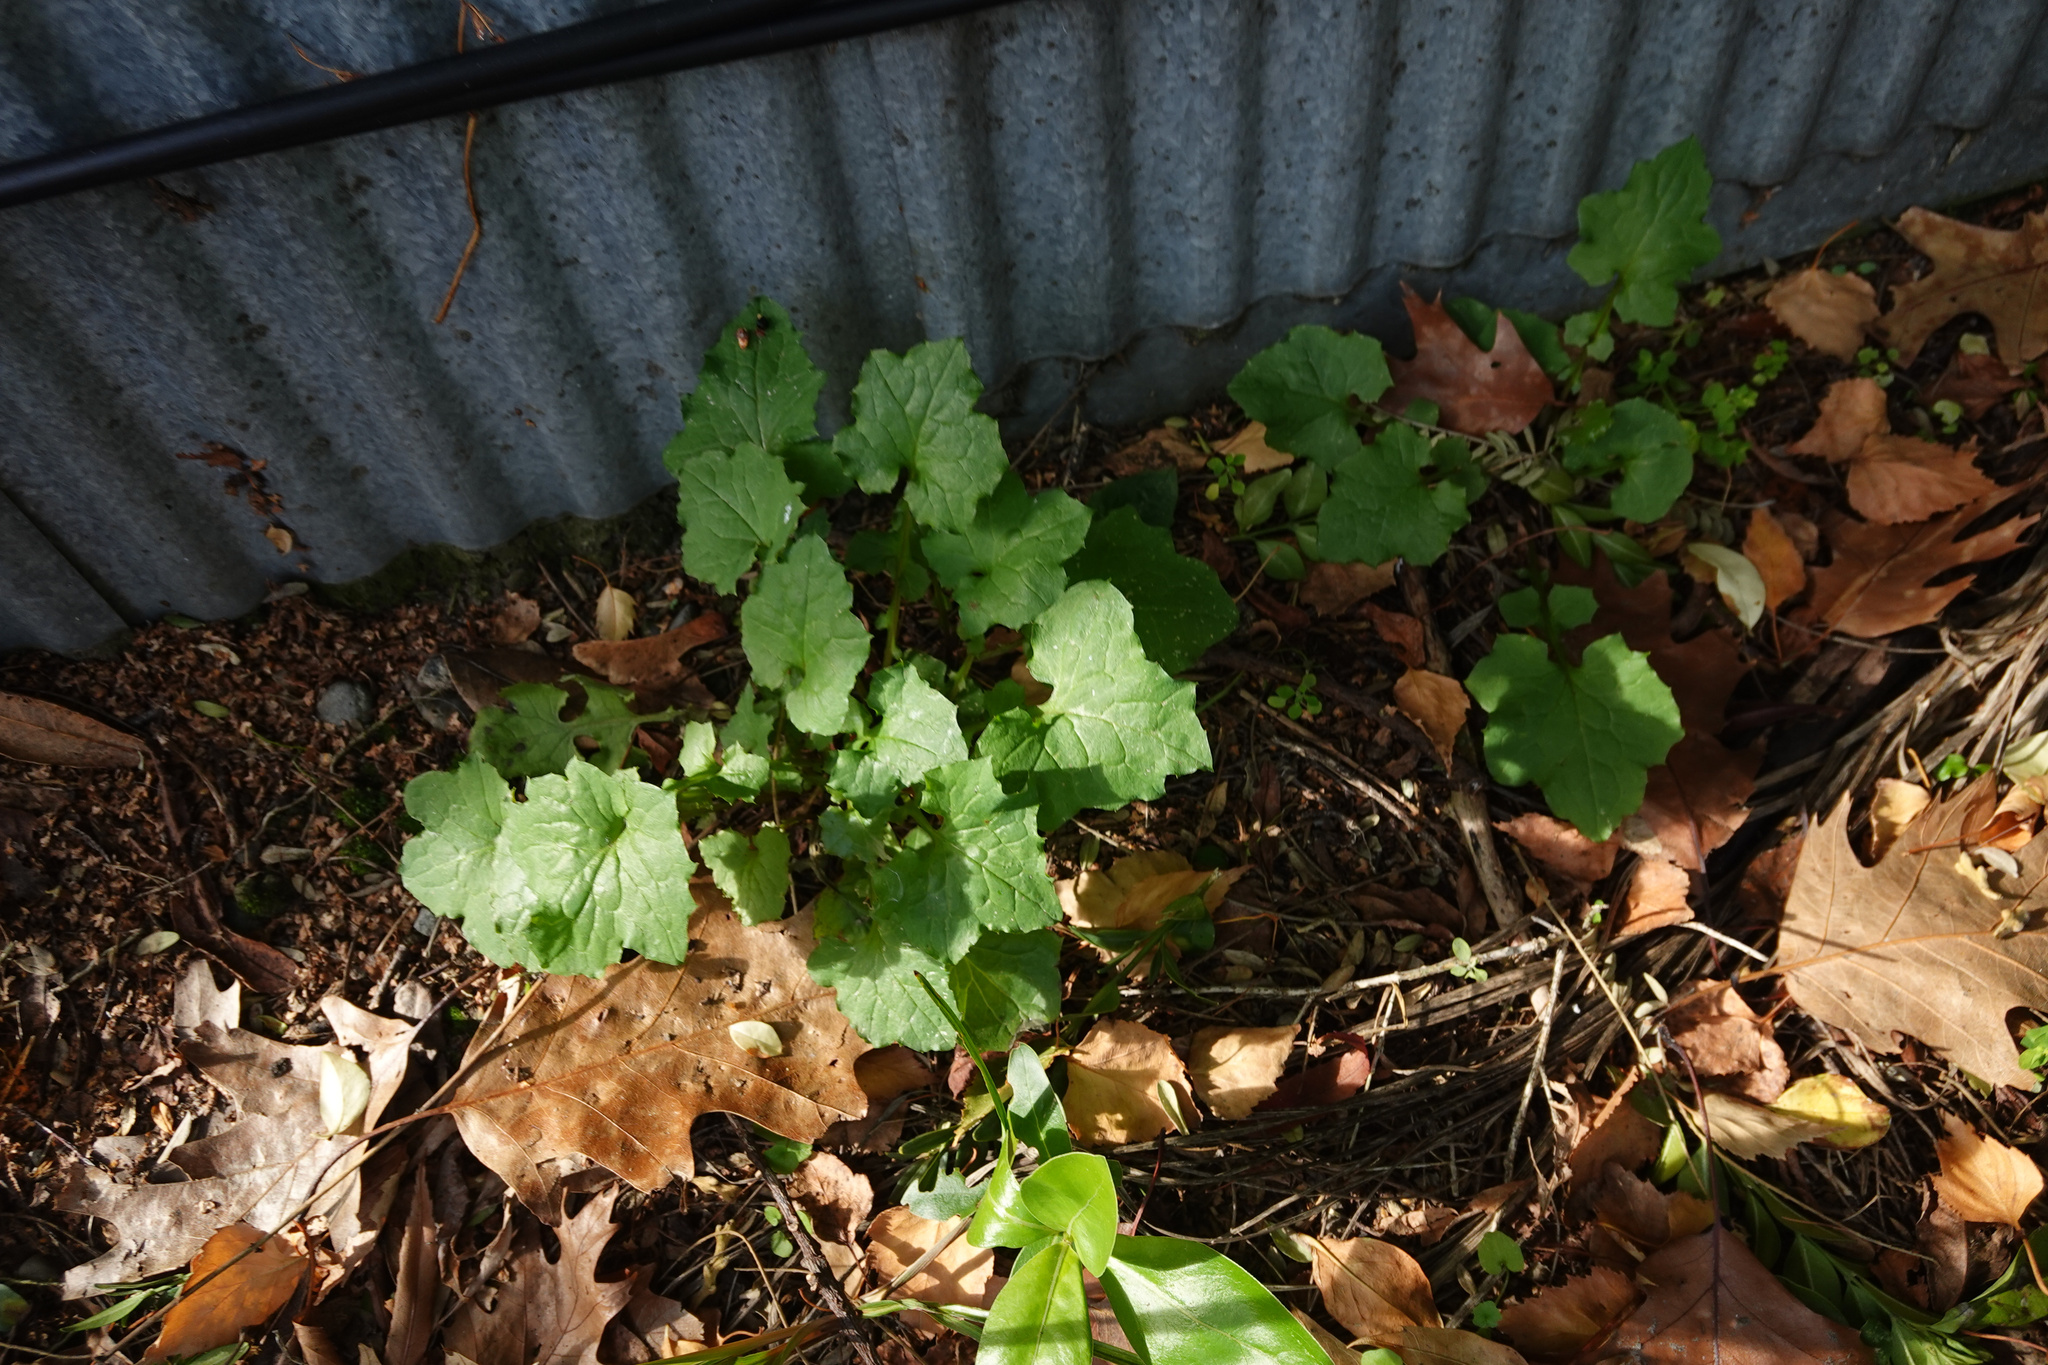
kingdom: Plantae
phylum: Tracheophyta
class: Magnoliopsida
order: Asterales
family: Asteraceae
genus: Mycelis
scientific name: Mycelis muralis
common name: Wall lettuce
